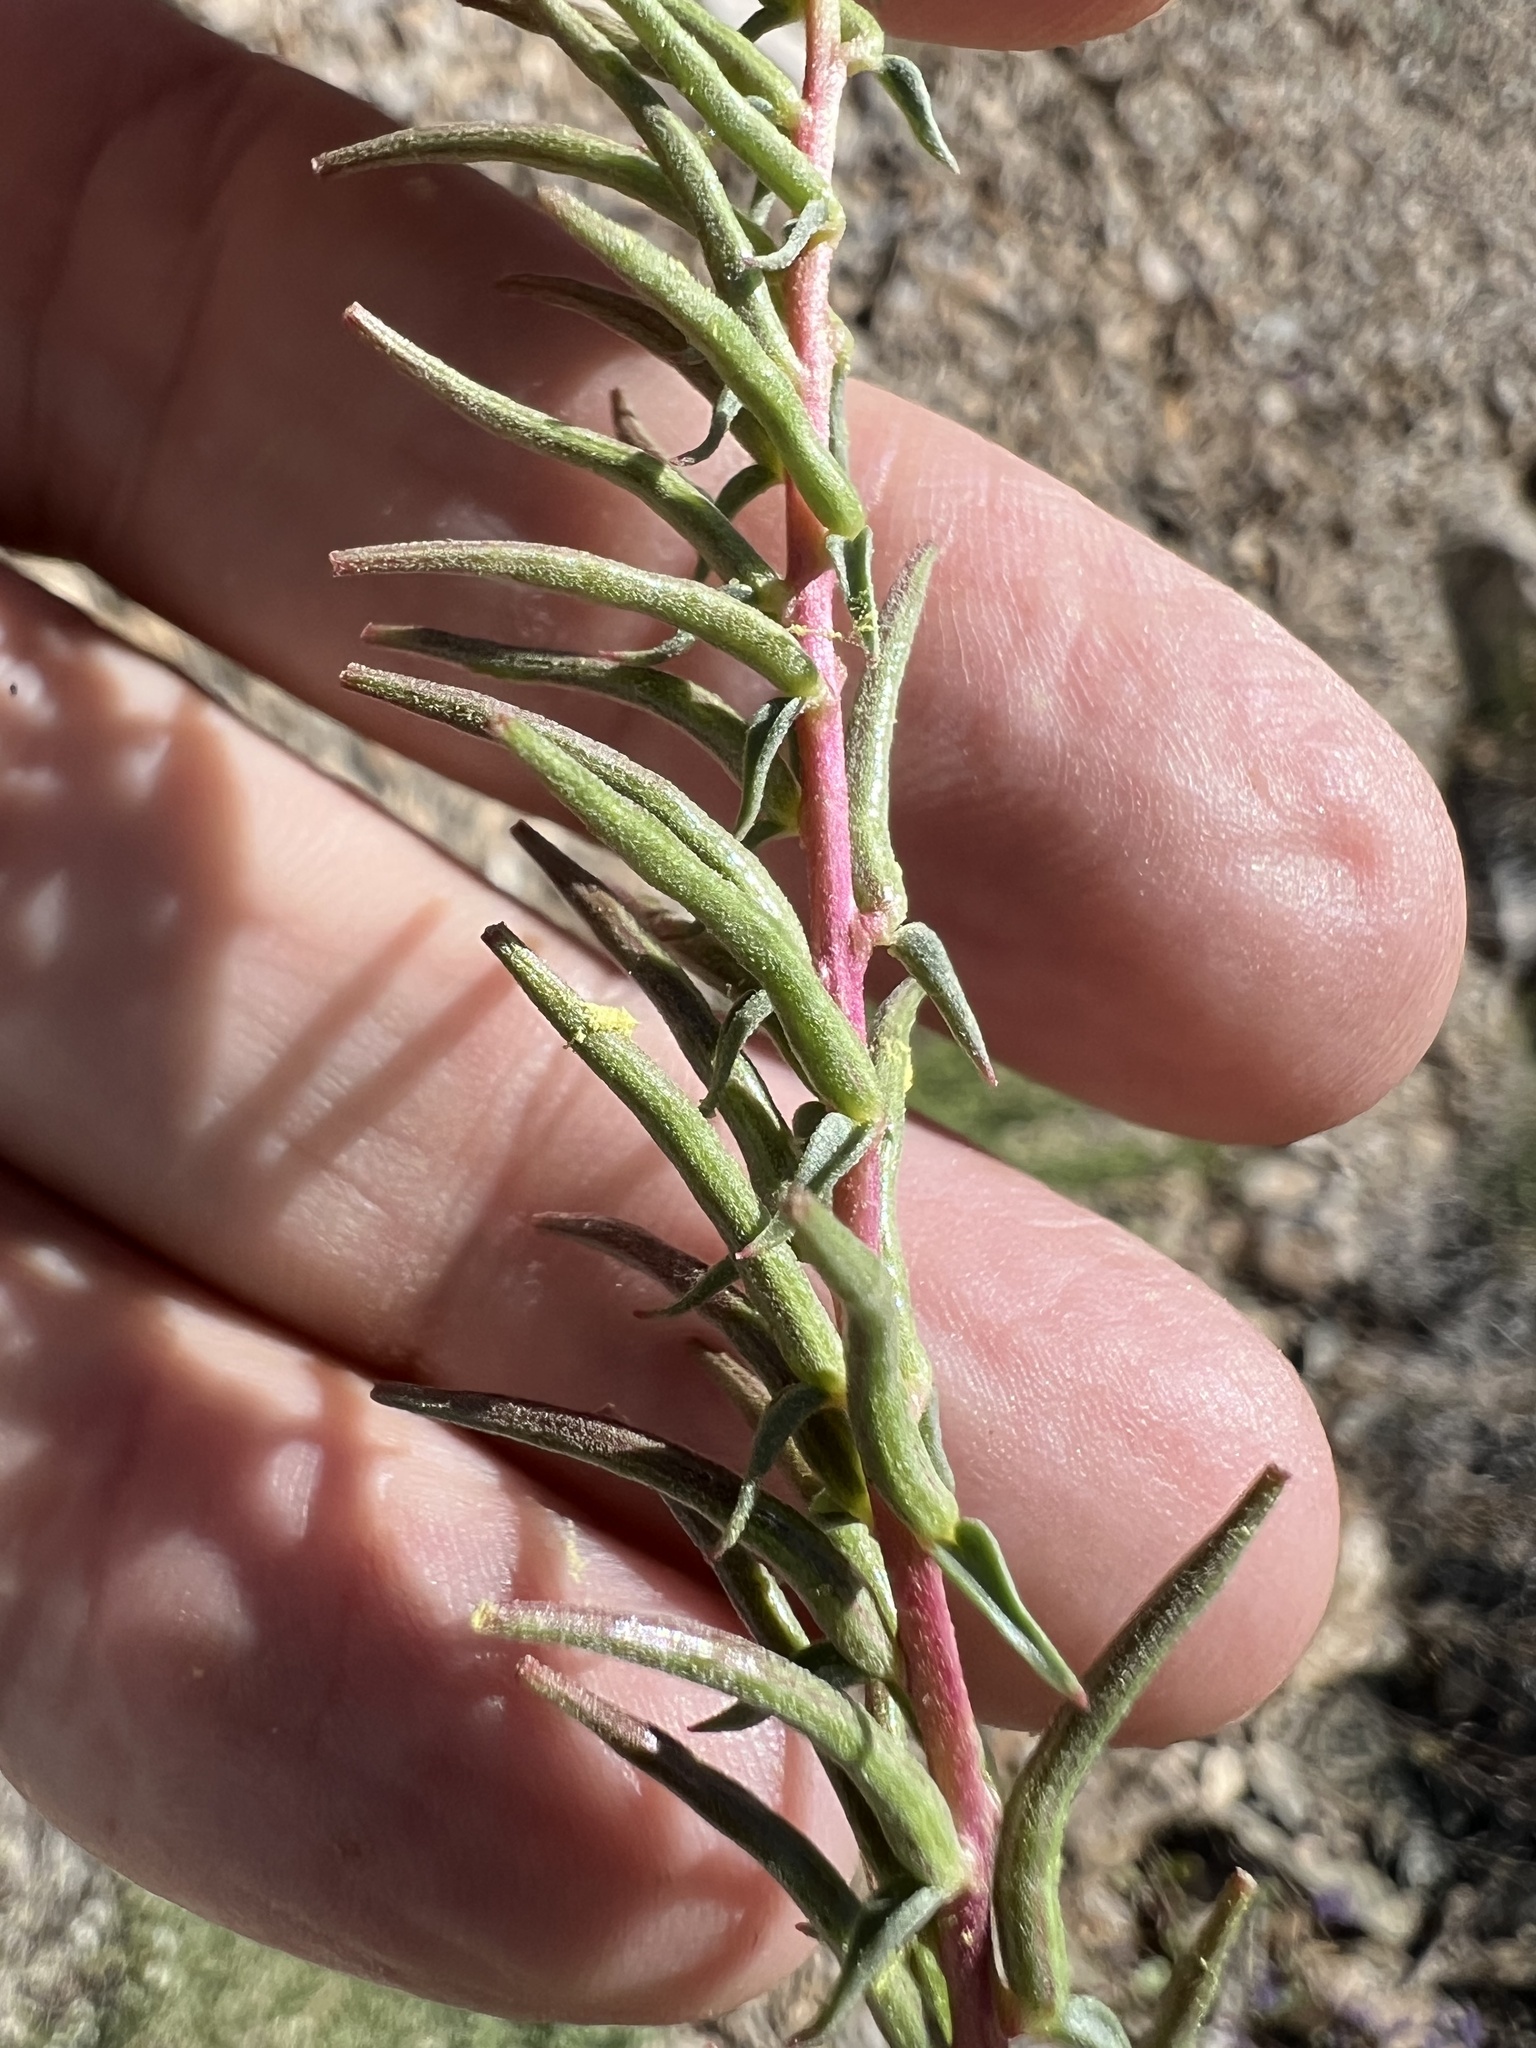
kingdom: Plantae
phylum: Tracheophyta
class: Magnoliopsida
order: Myrtales
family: Onagraceae
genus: Eremothera
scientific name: Eremothera boothii
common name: Booth's evening primrose
